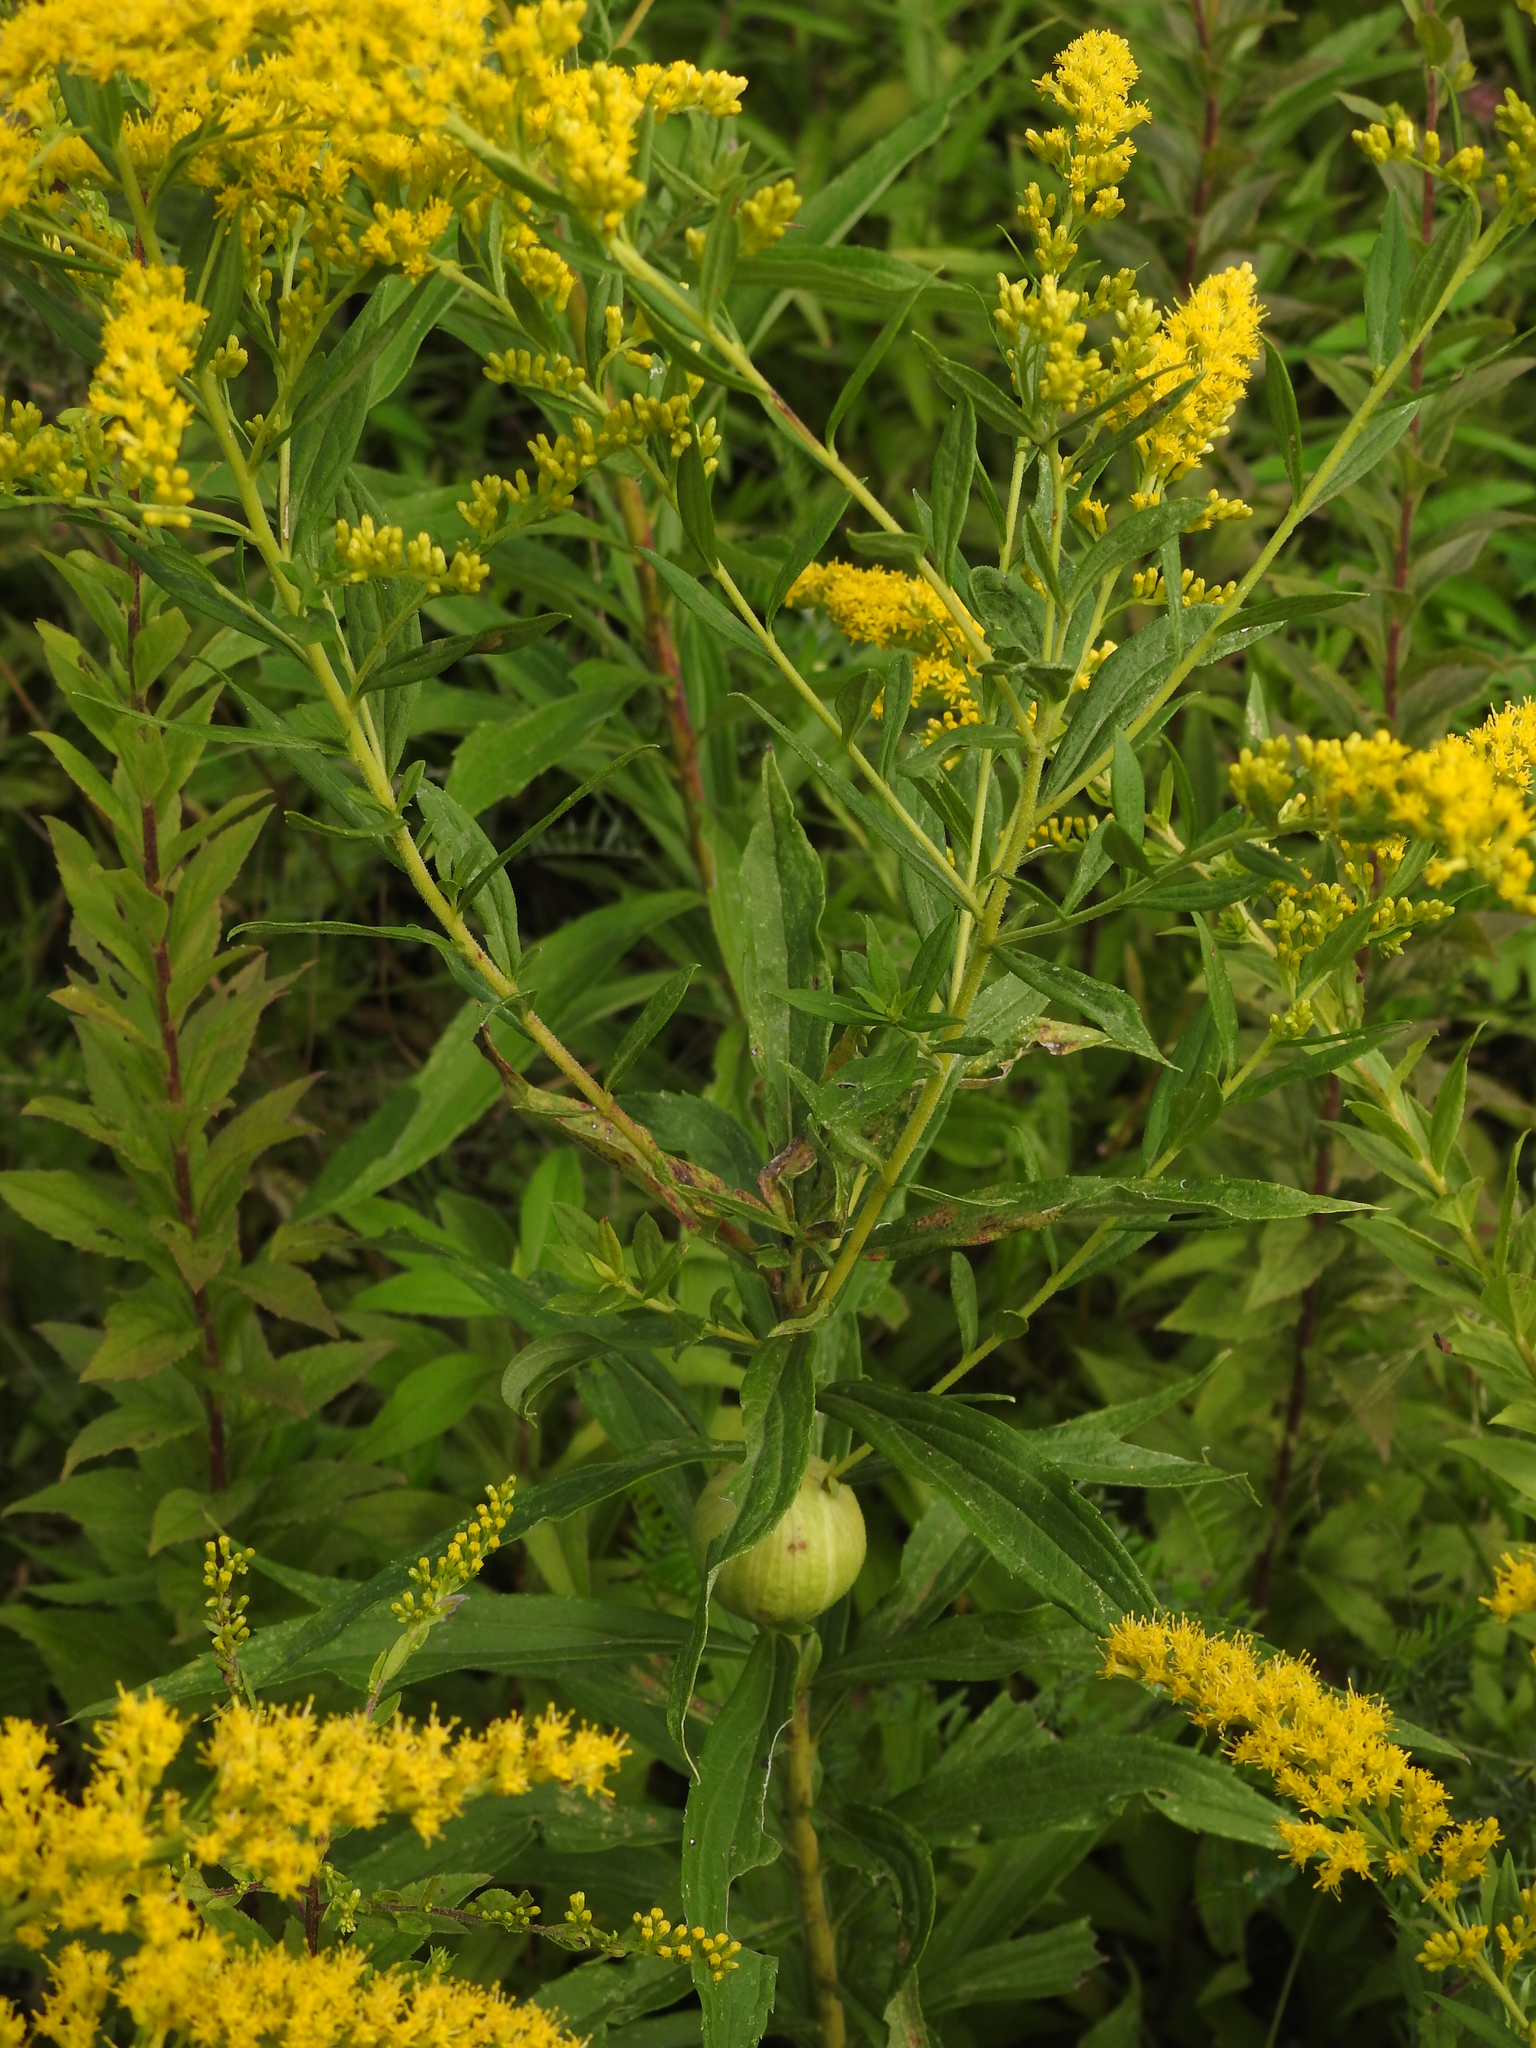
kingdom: Animalia
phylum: Arthropoda
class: Insecta
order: Diptera
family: Tephritidae
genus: Eurosta
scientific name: Eurosta solidaginis
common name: Goldenrod gall fly
